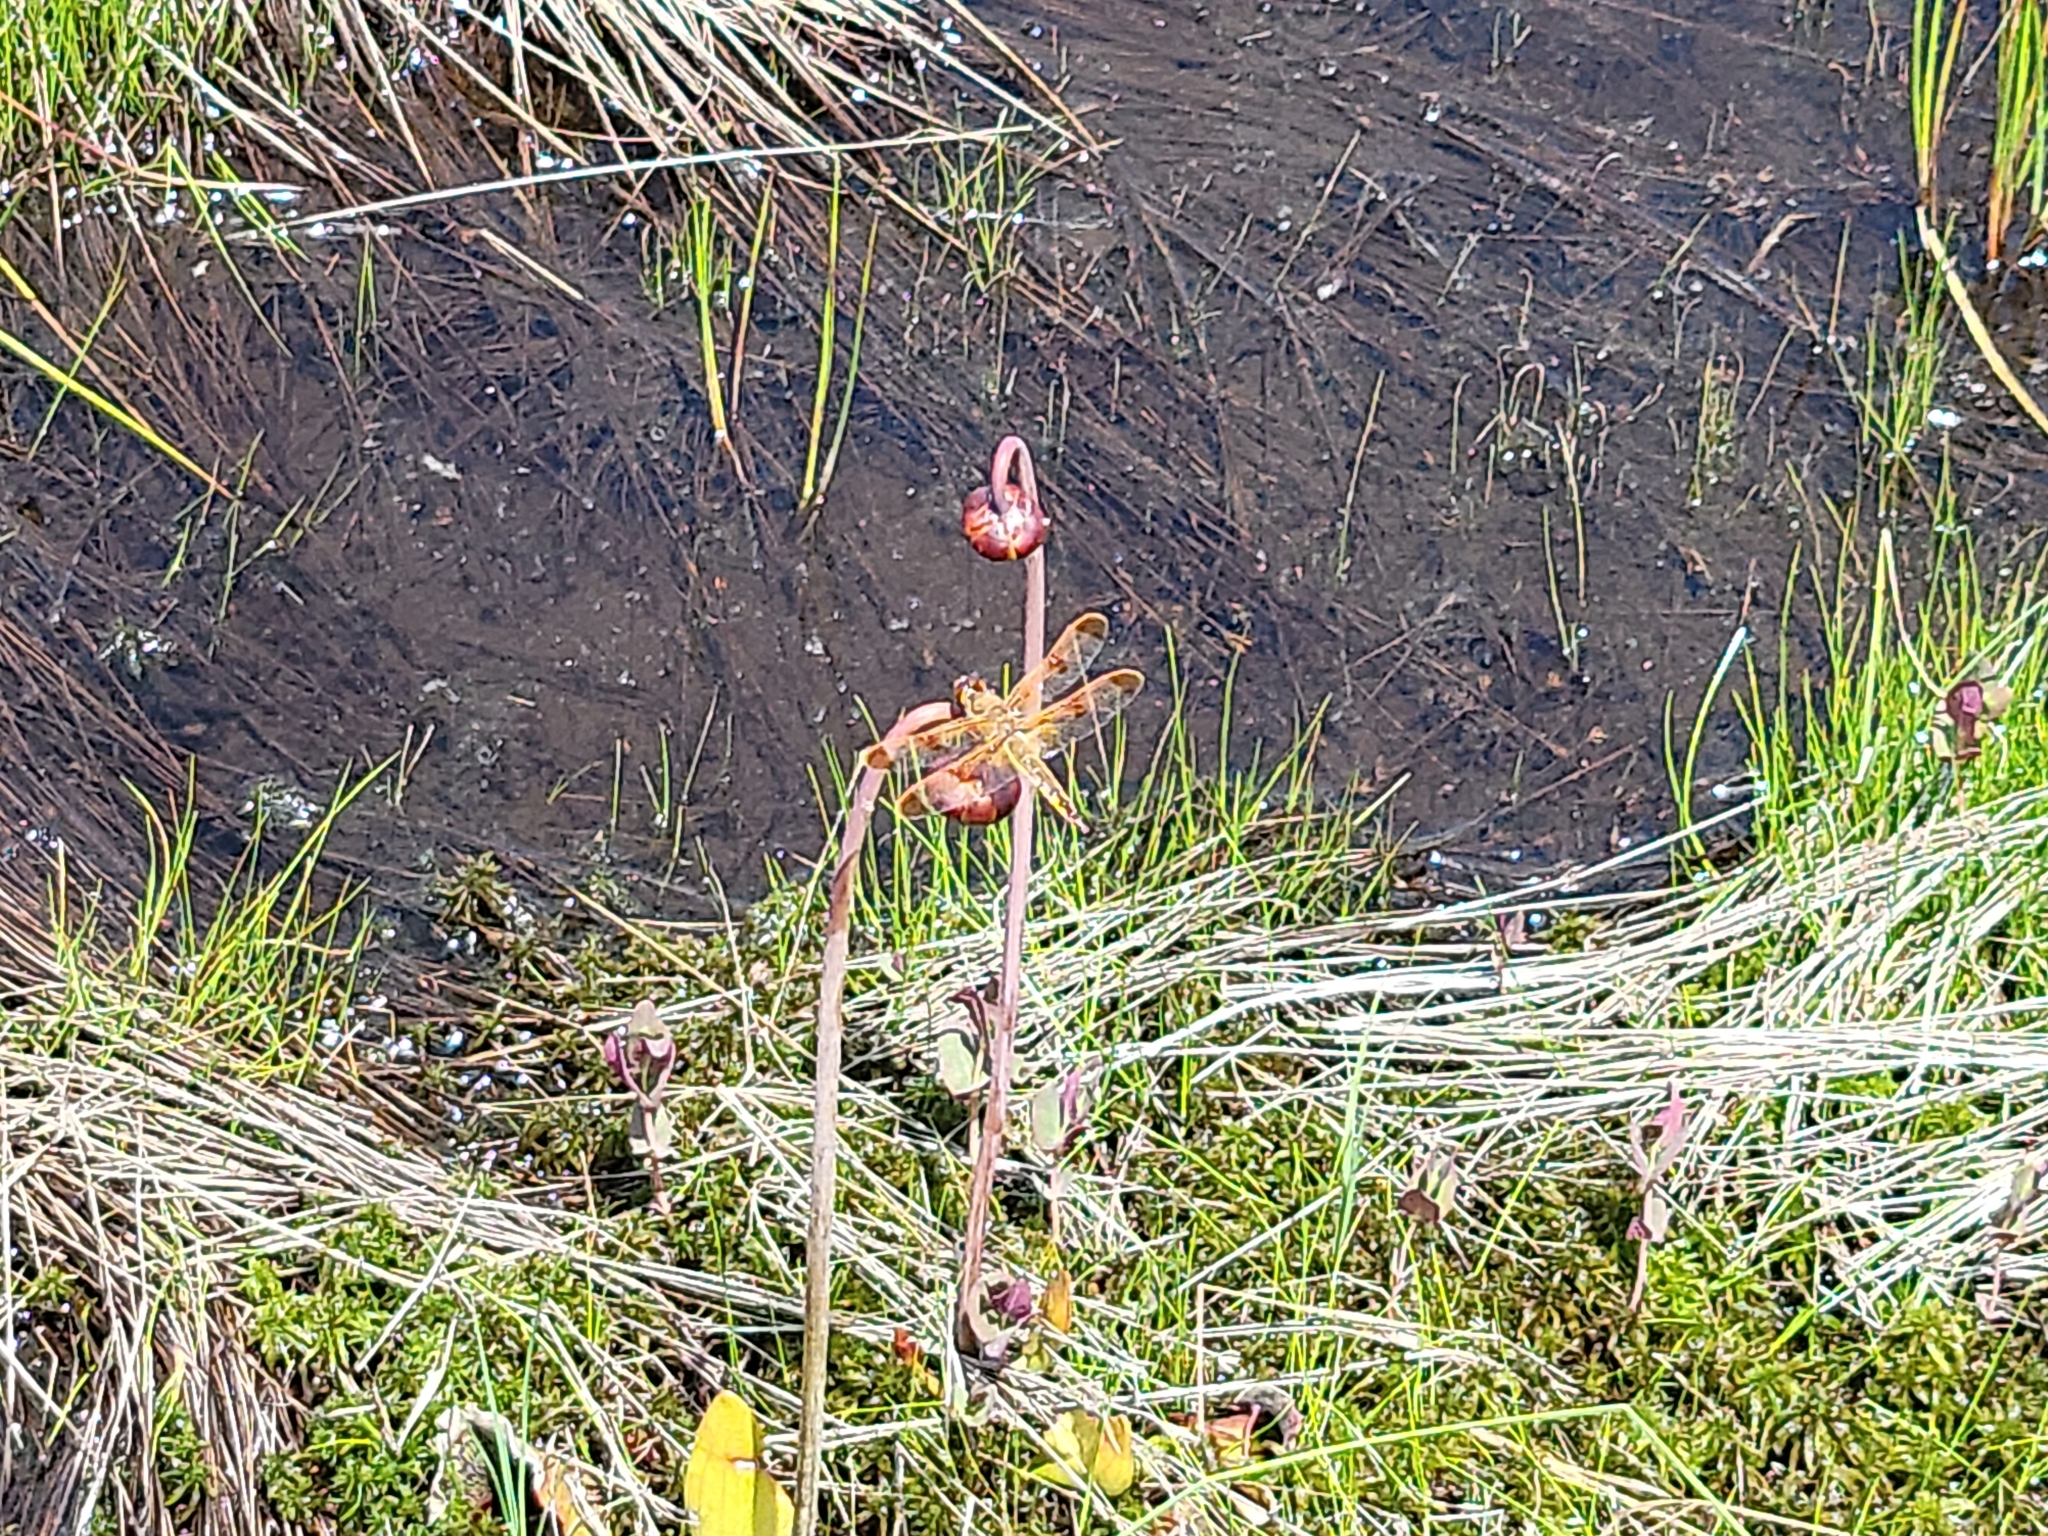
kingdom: Animalia
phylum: Arthropoda
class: Insecta
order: Odonata
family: Libellulidae
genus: Libellula
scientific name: Libellula semifasciata
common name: Painted skimmer
